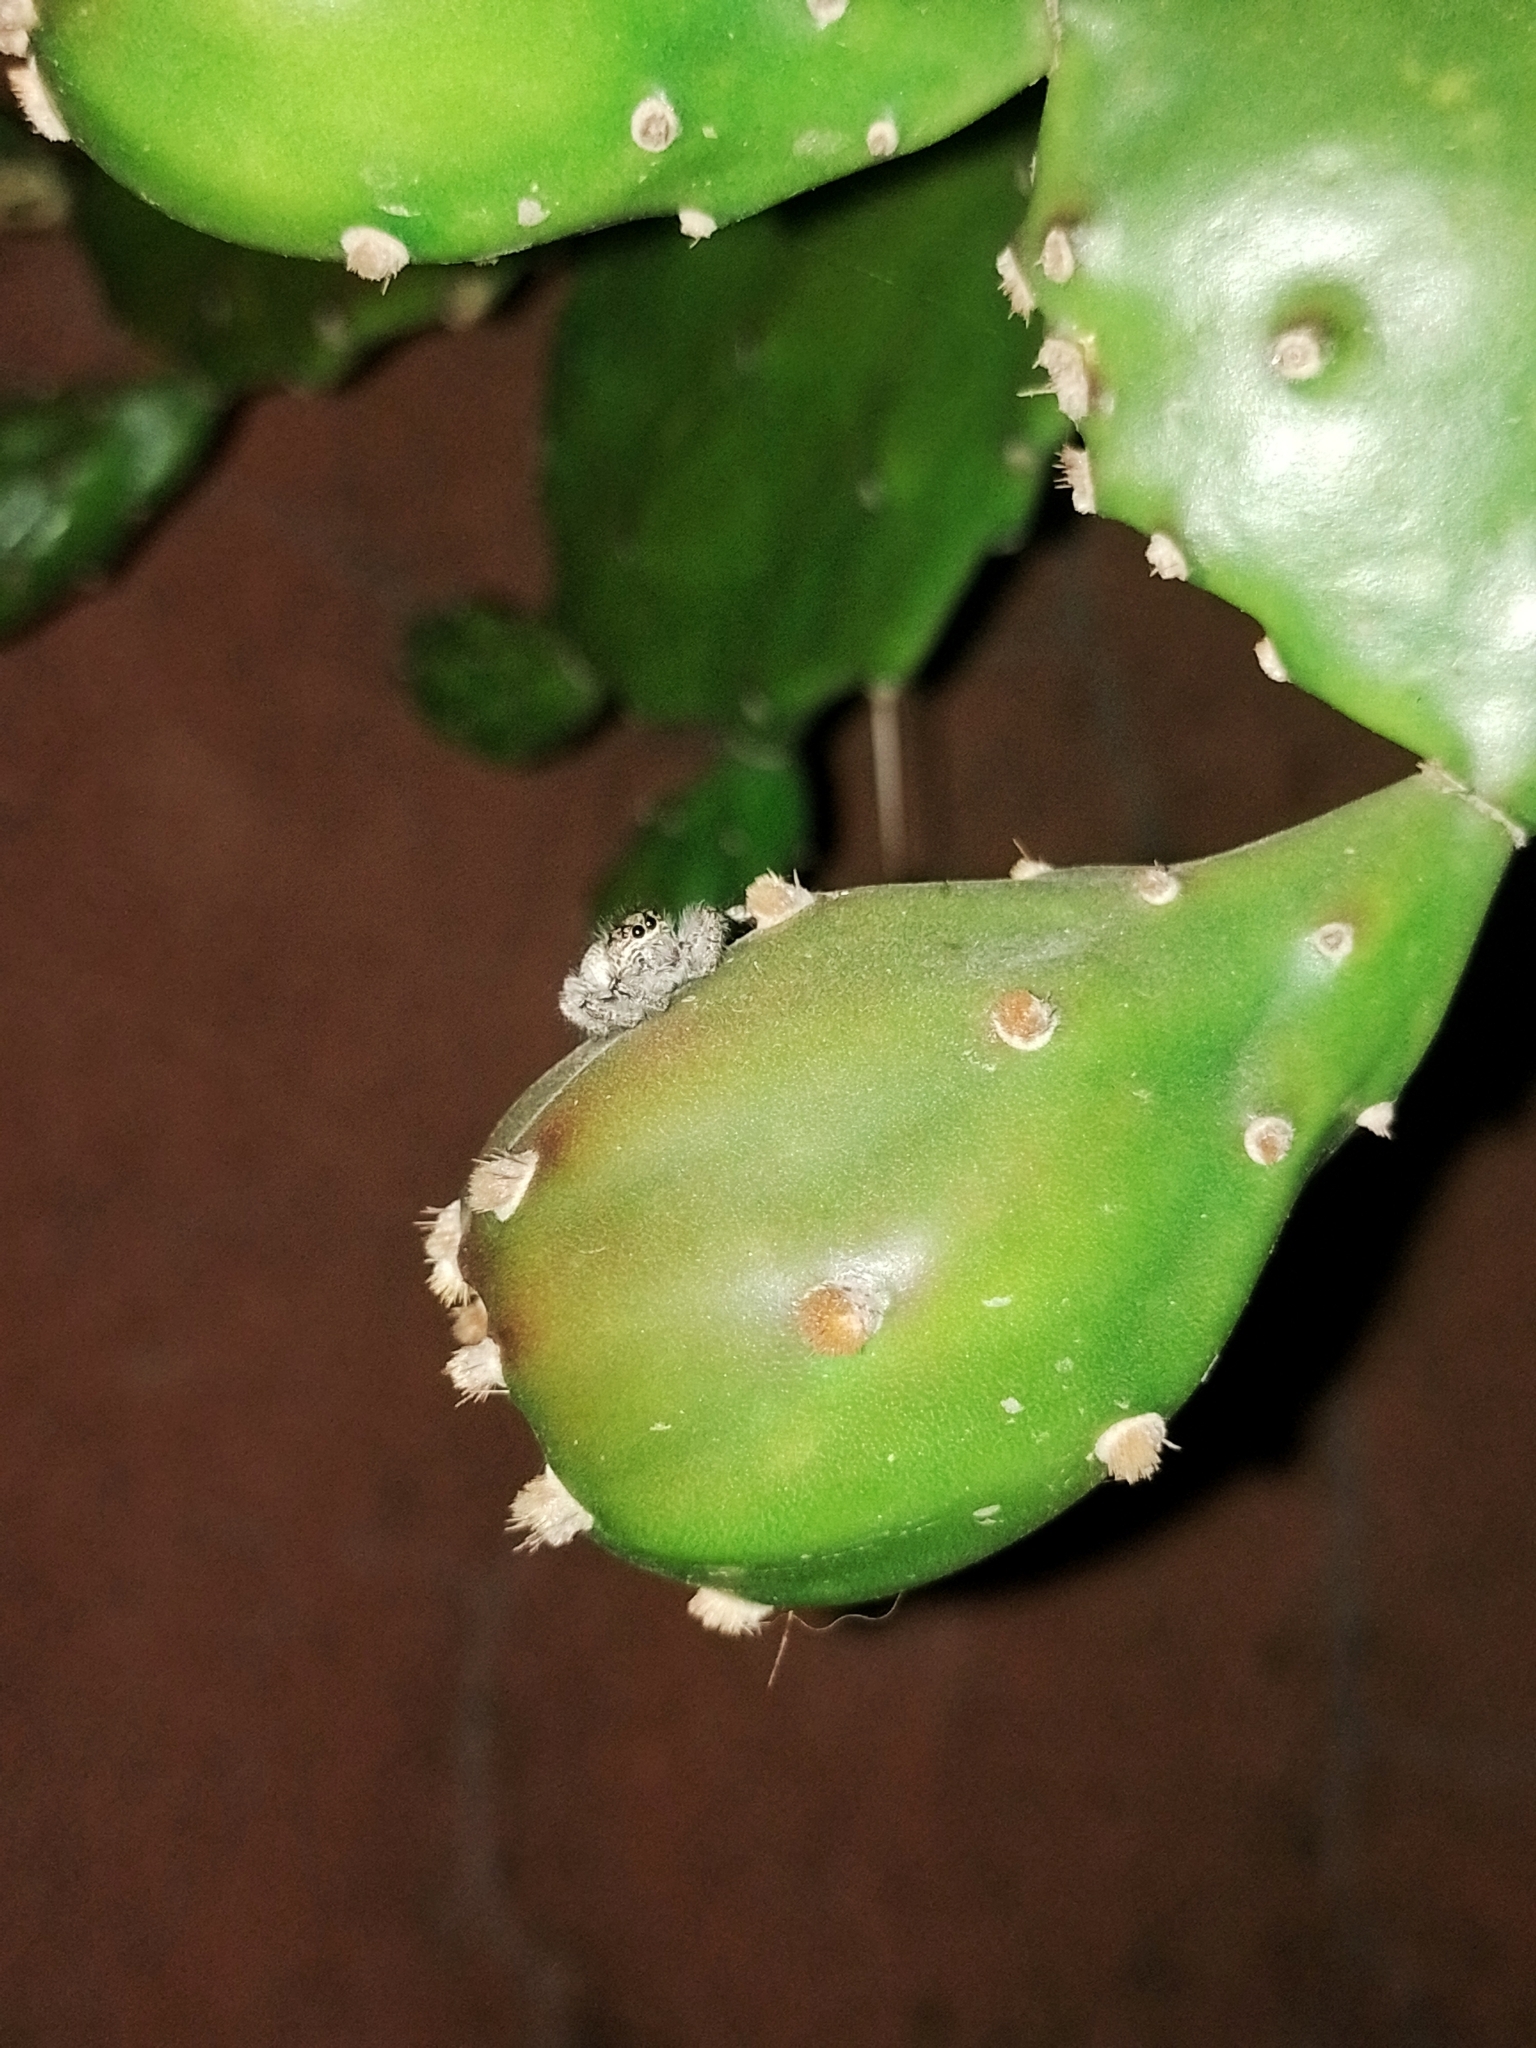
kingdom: Animalia
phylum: Arthropoda
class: Arachnida
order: Araneae
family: Salticidae
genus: Megafreya
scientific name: Megafreya sutrix
